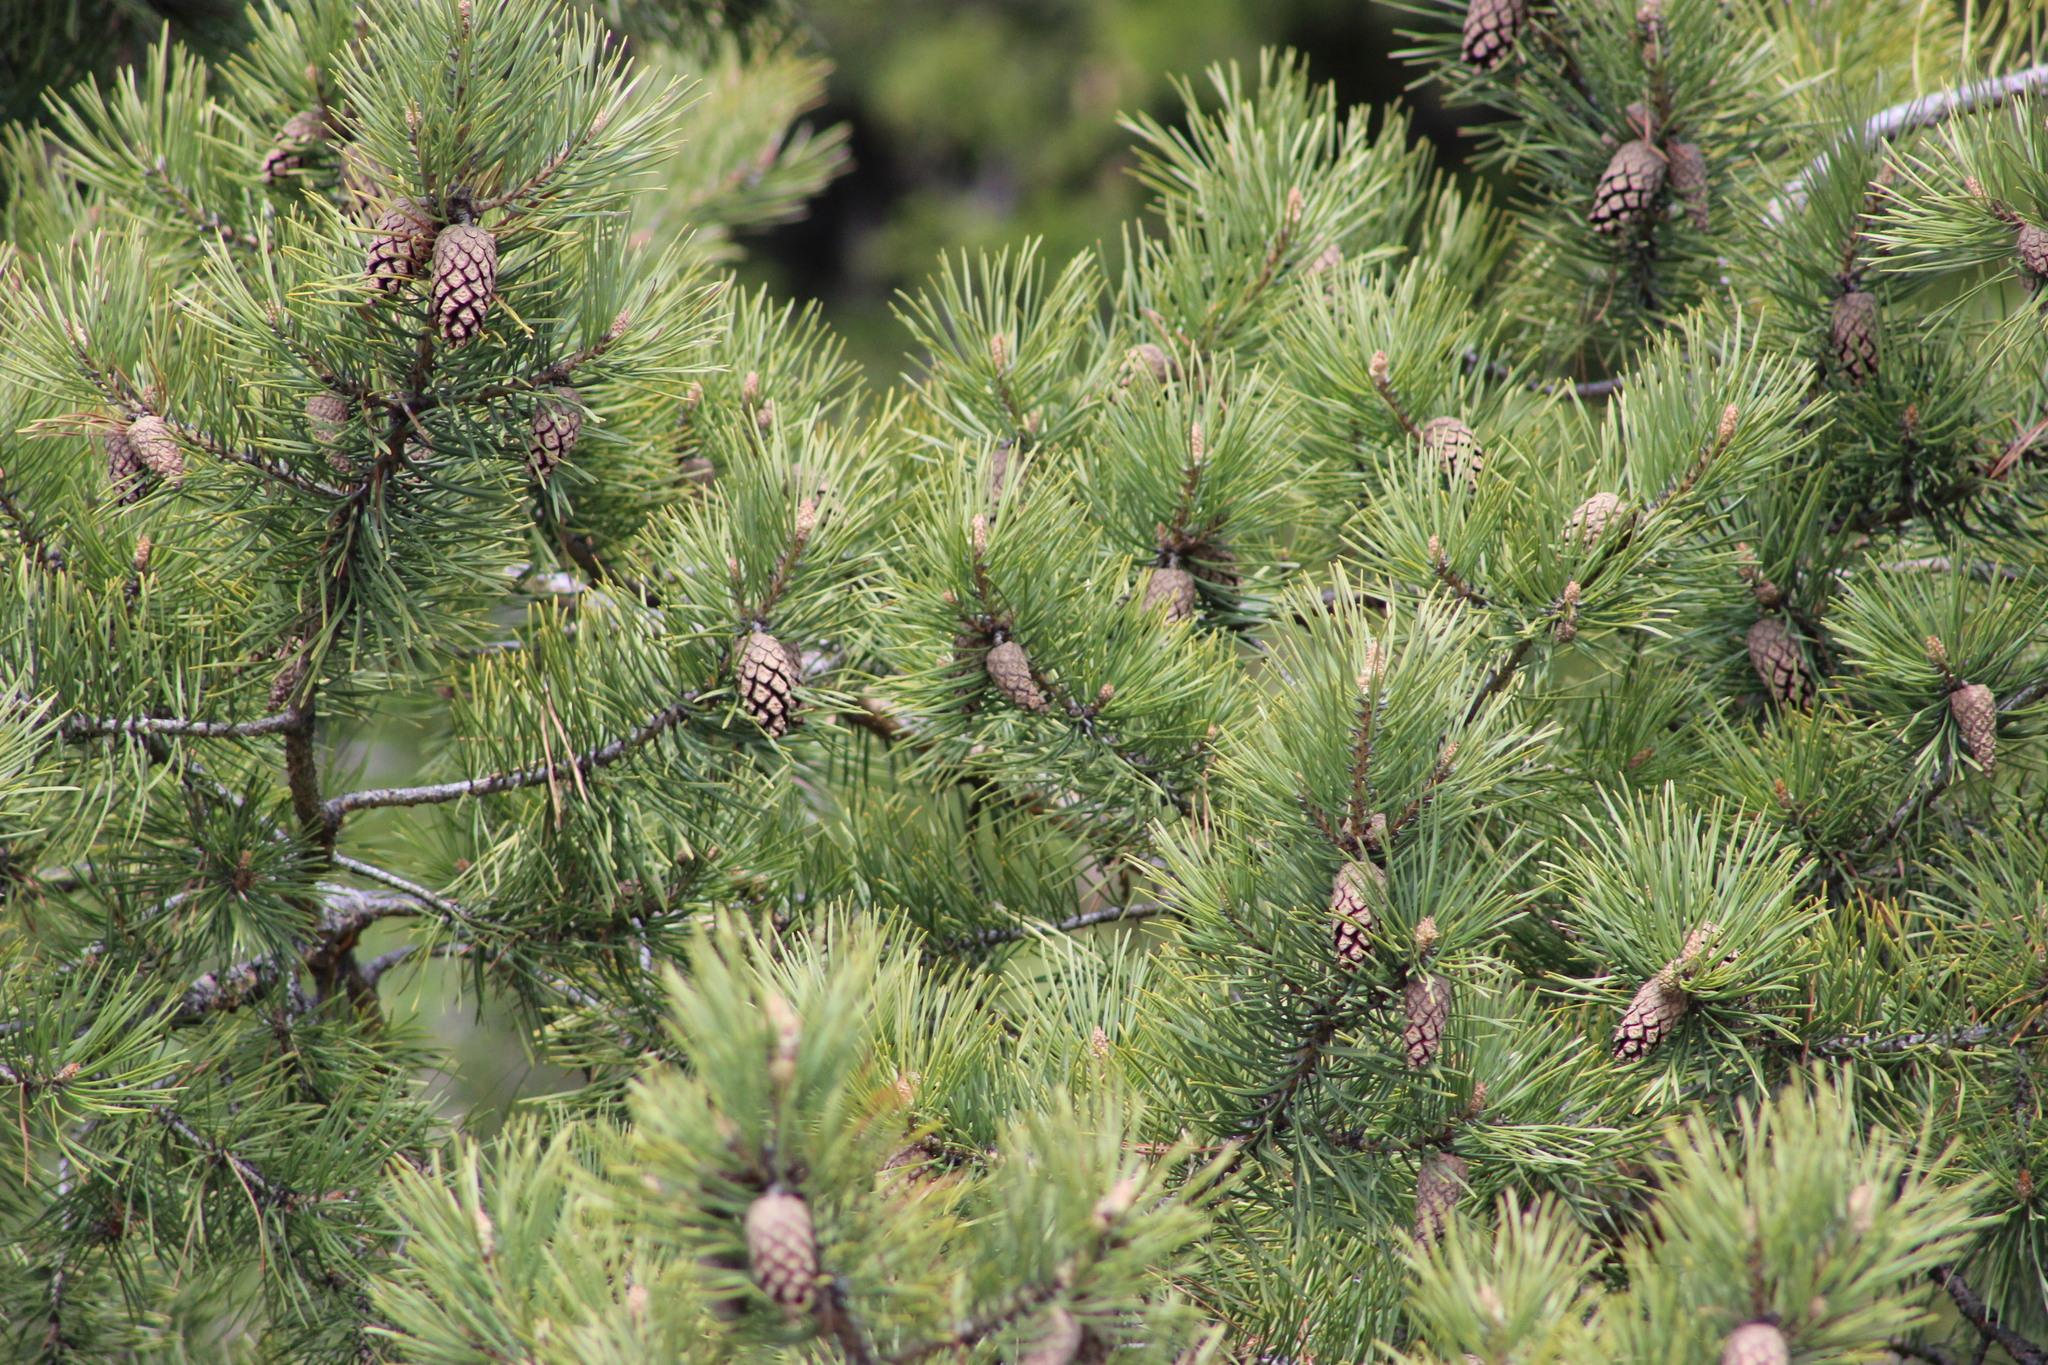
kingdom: Plantae
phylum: Tracheophyta
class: Pinopsida
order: Pinales
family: Pinaceae
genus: Pinus
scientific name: Pinus sylvestris
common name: Scots pine
